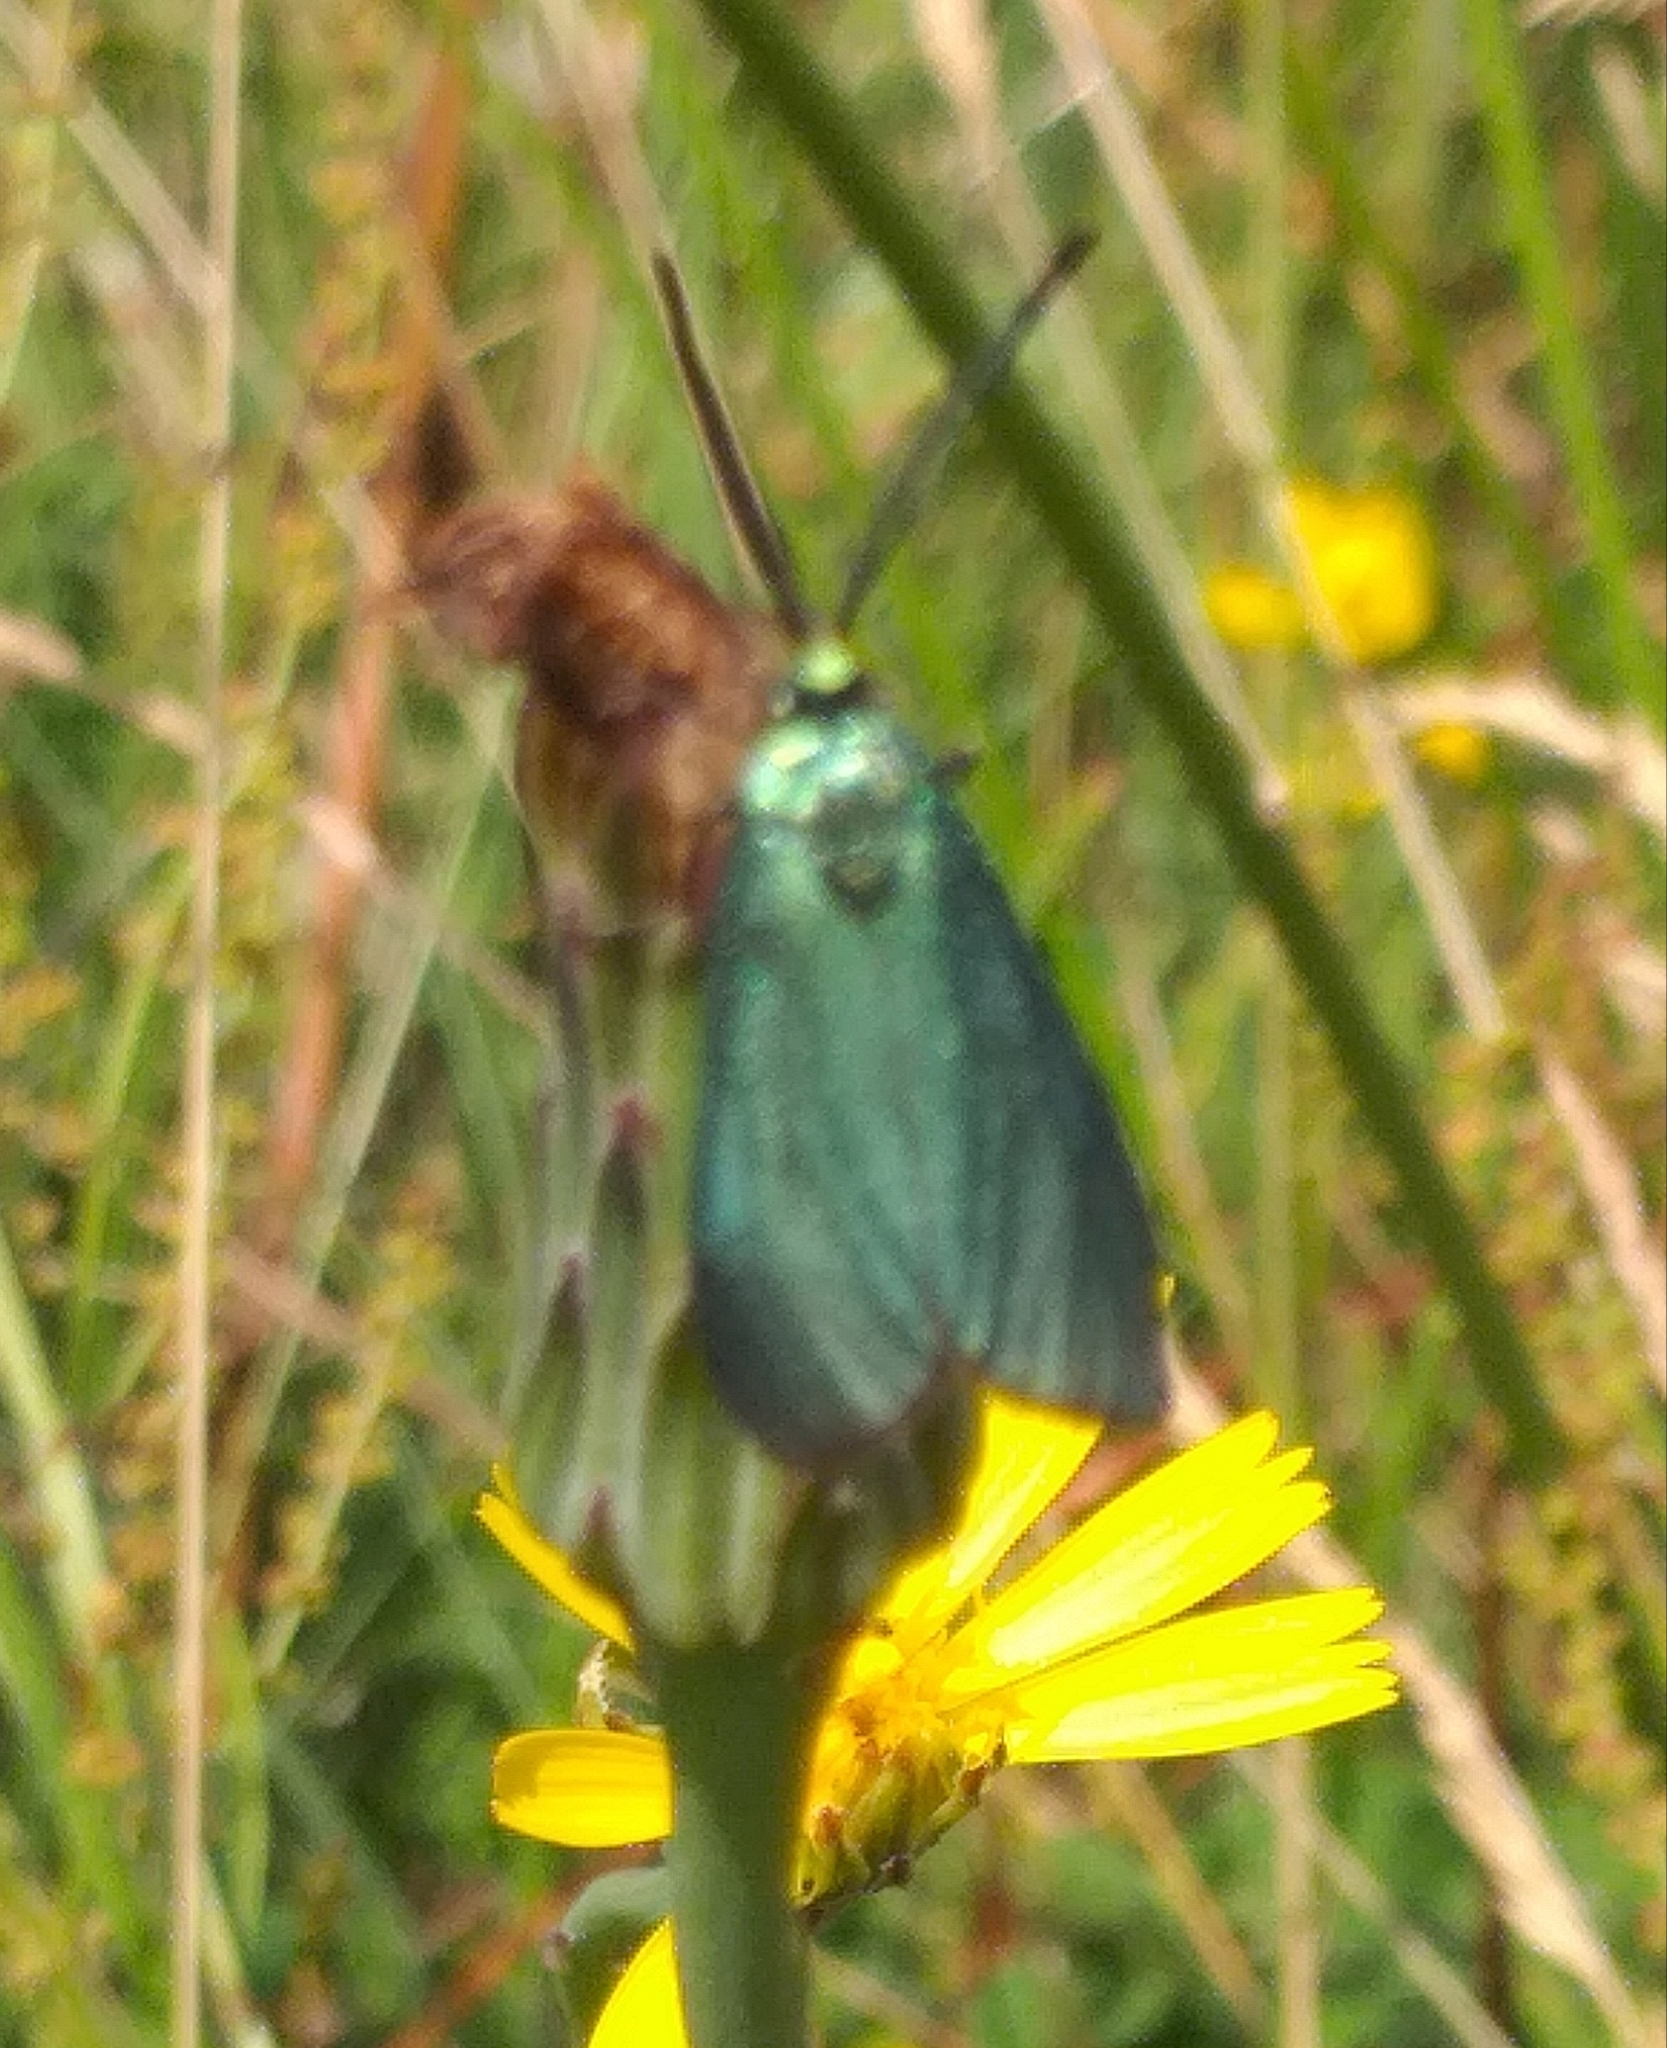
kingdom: Animalia
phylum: Arthropoda
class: Insecta
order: Lepidoptera
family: Zygaenidae
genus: Adscita
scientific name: Adscita statices
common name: Forester
